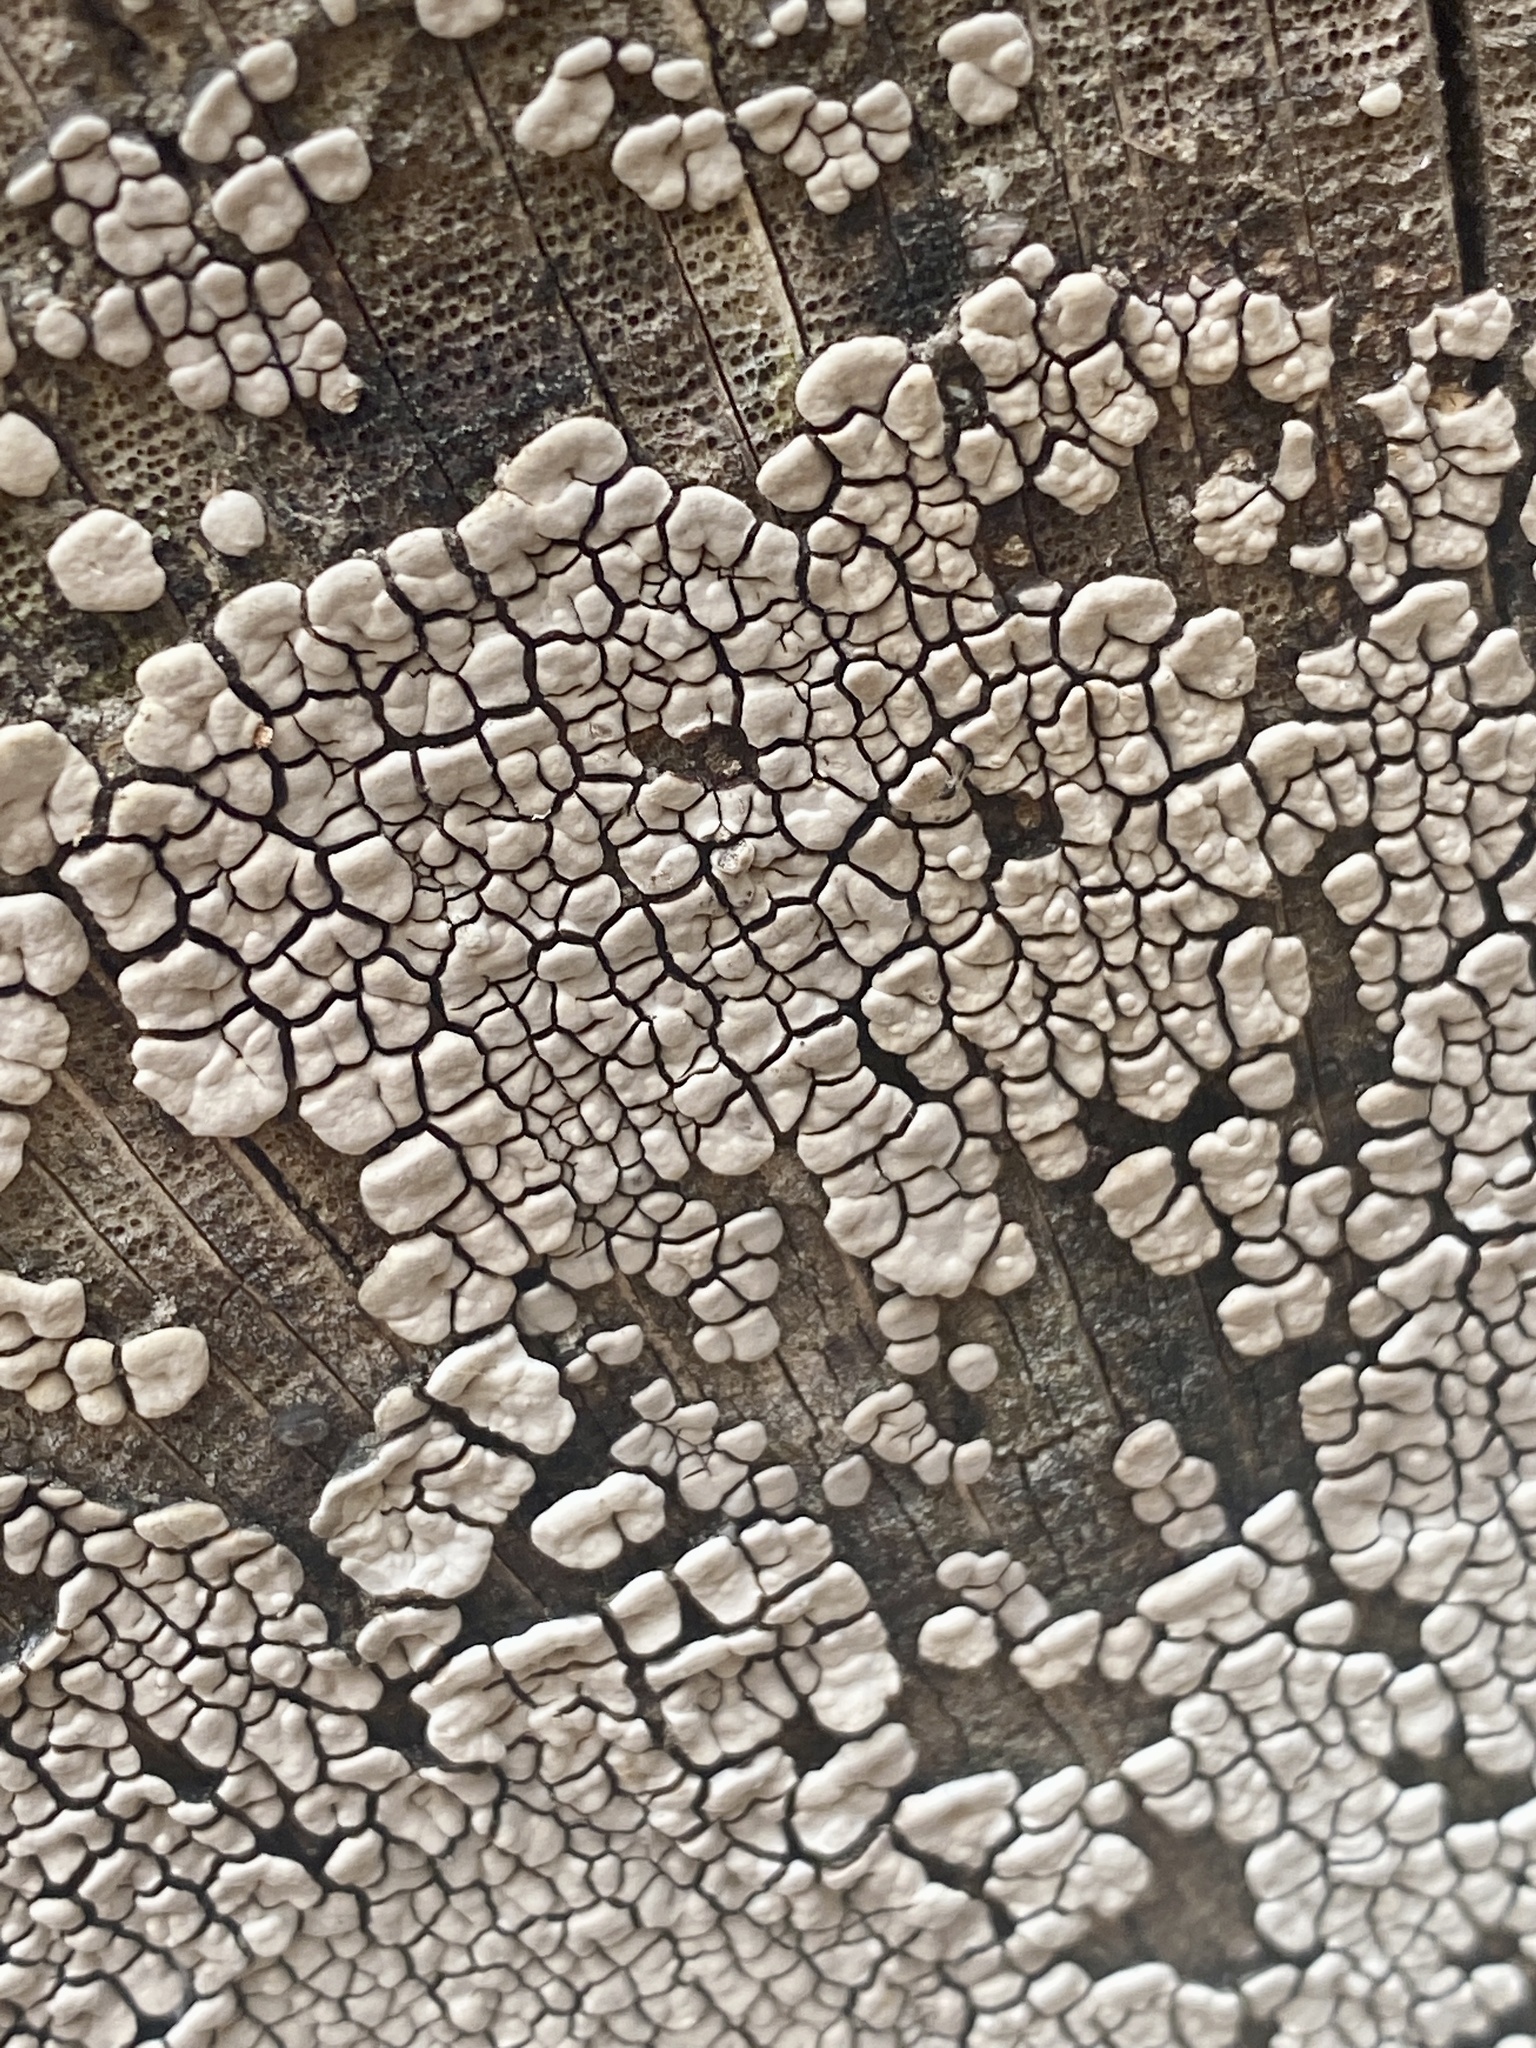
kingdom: Fungi
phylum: Basidiomycota
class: Agaricomycetes
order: Russulales
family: Stereaceae
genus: Xylobolus
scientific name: Xylobolus frustulatus
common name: Ceramic parchment
